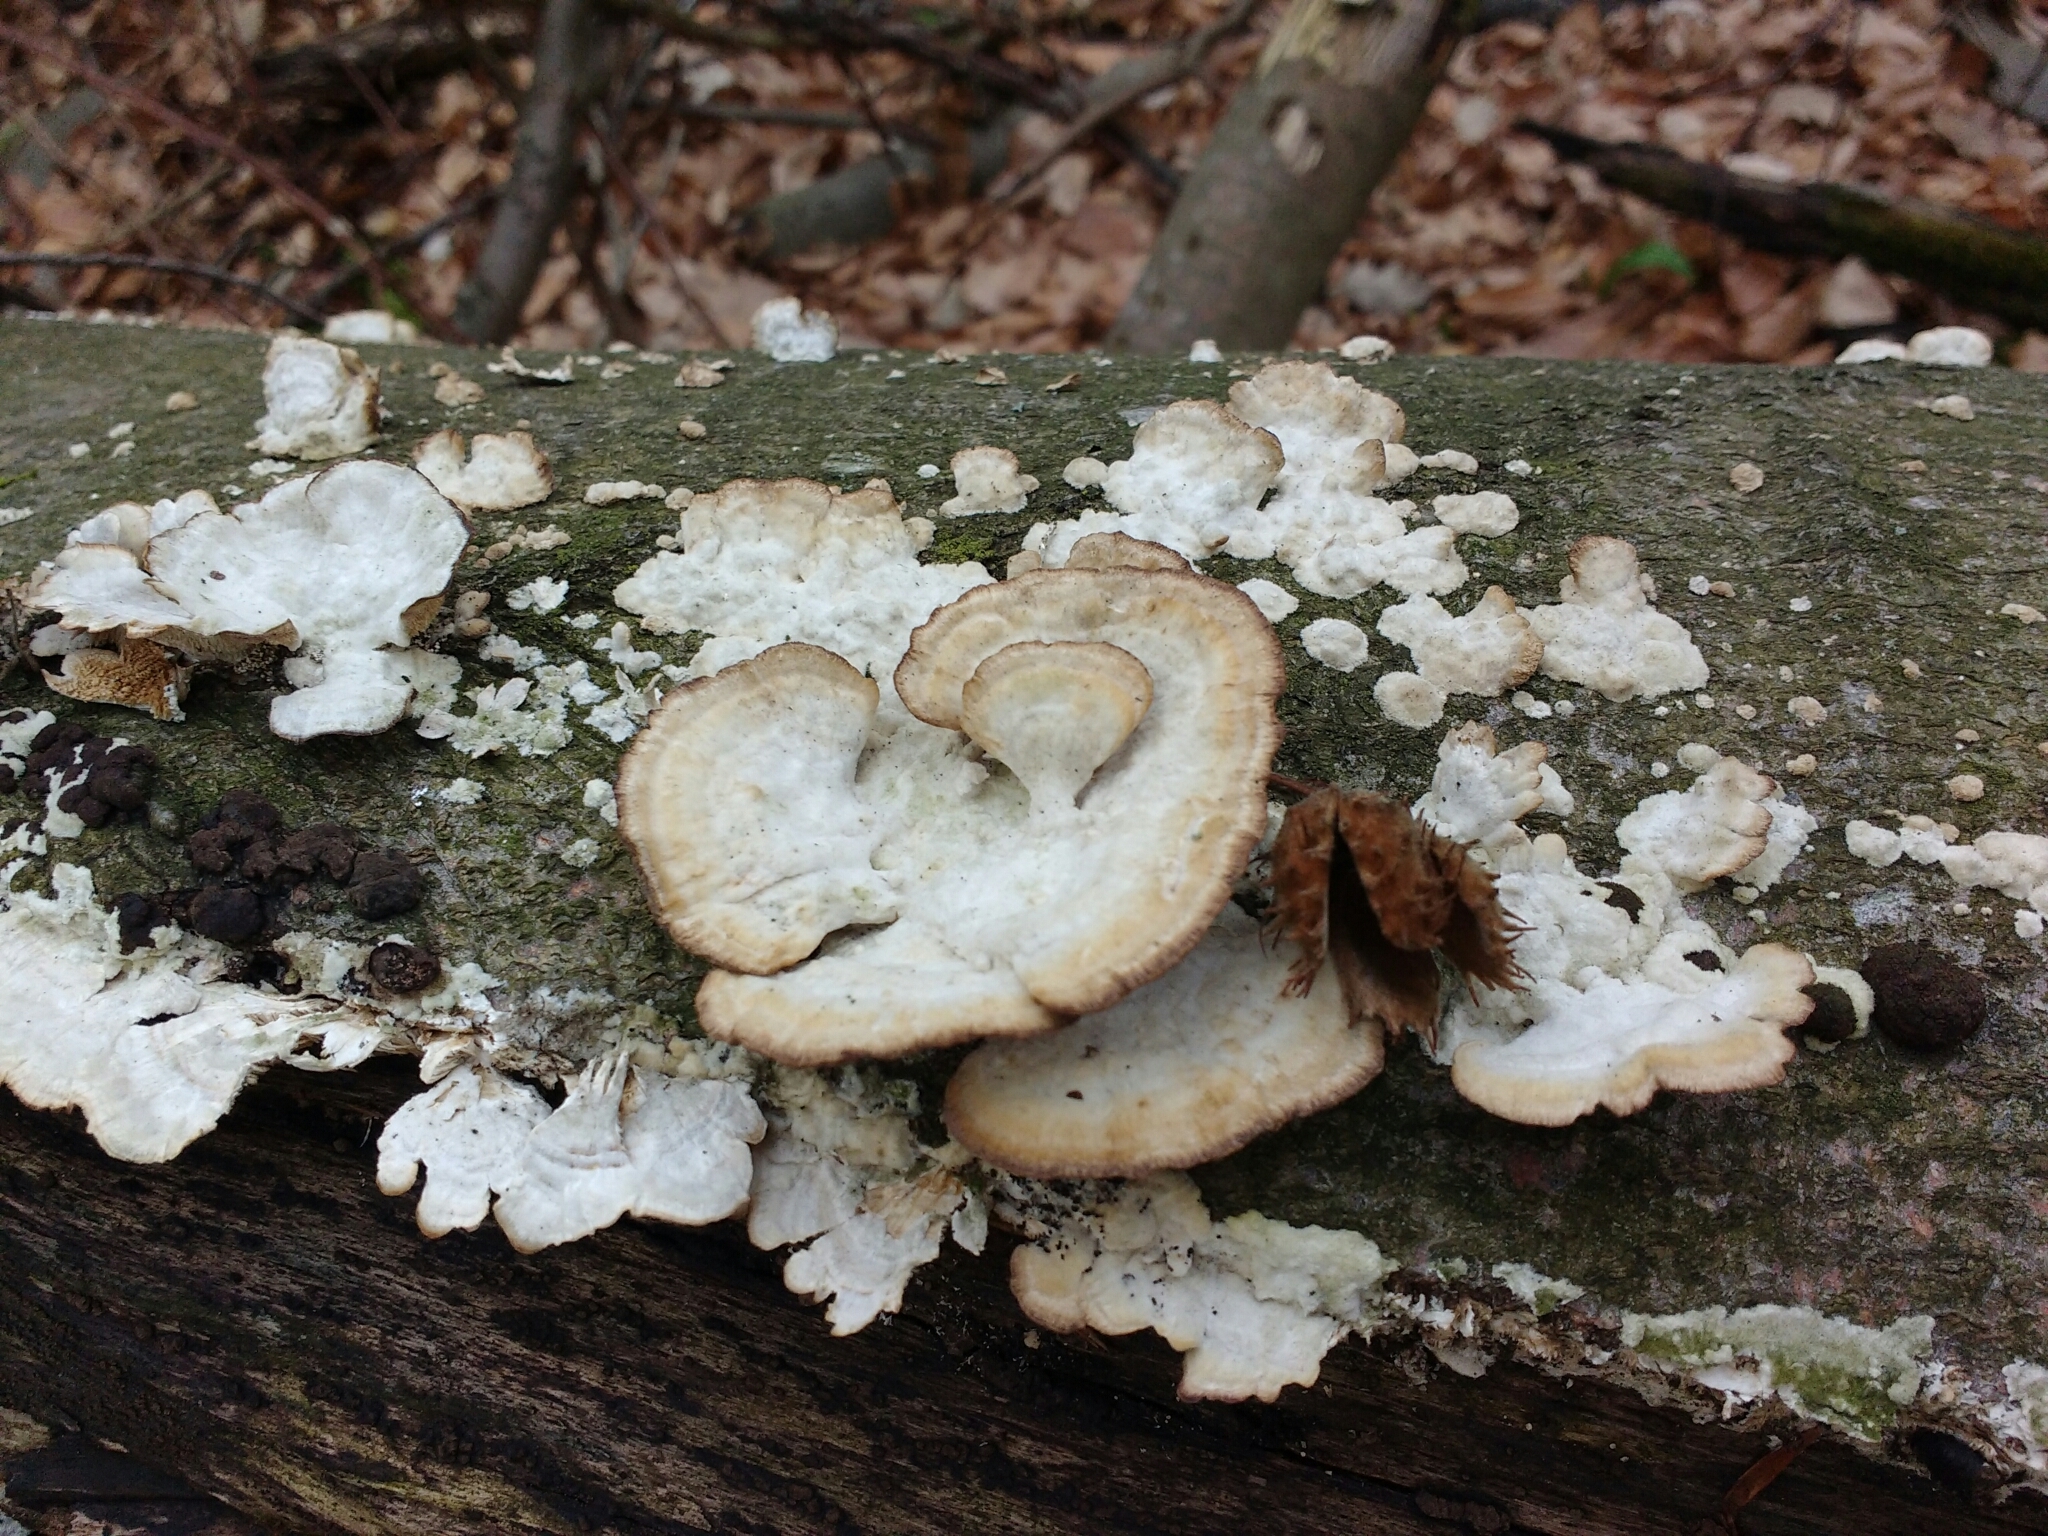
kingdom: Fungi
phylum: Basidiomycota
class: Agaricomycetes
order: Polyporales
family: Irpicaceae
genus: Trametopsis
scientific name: Trametopsis cervina
